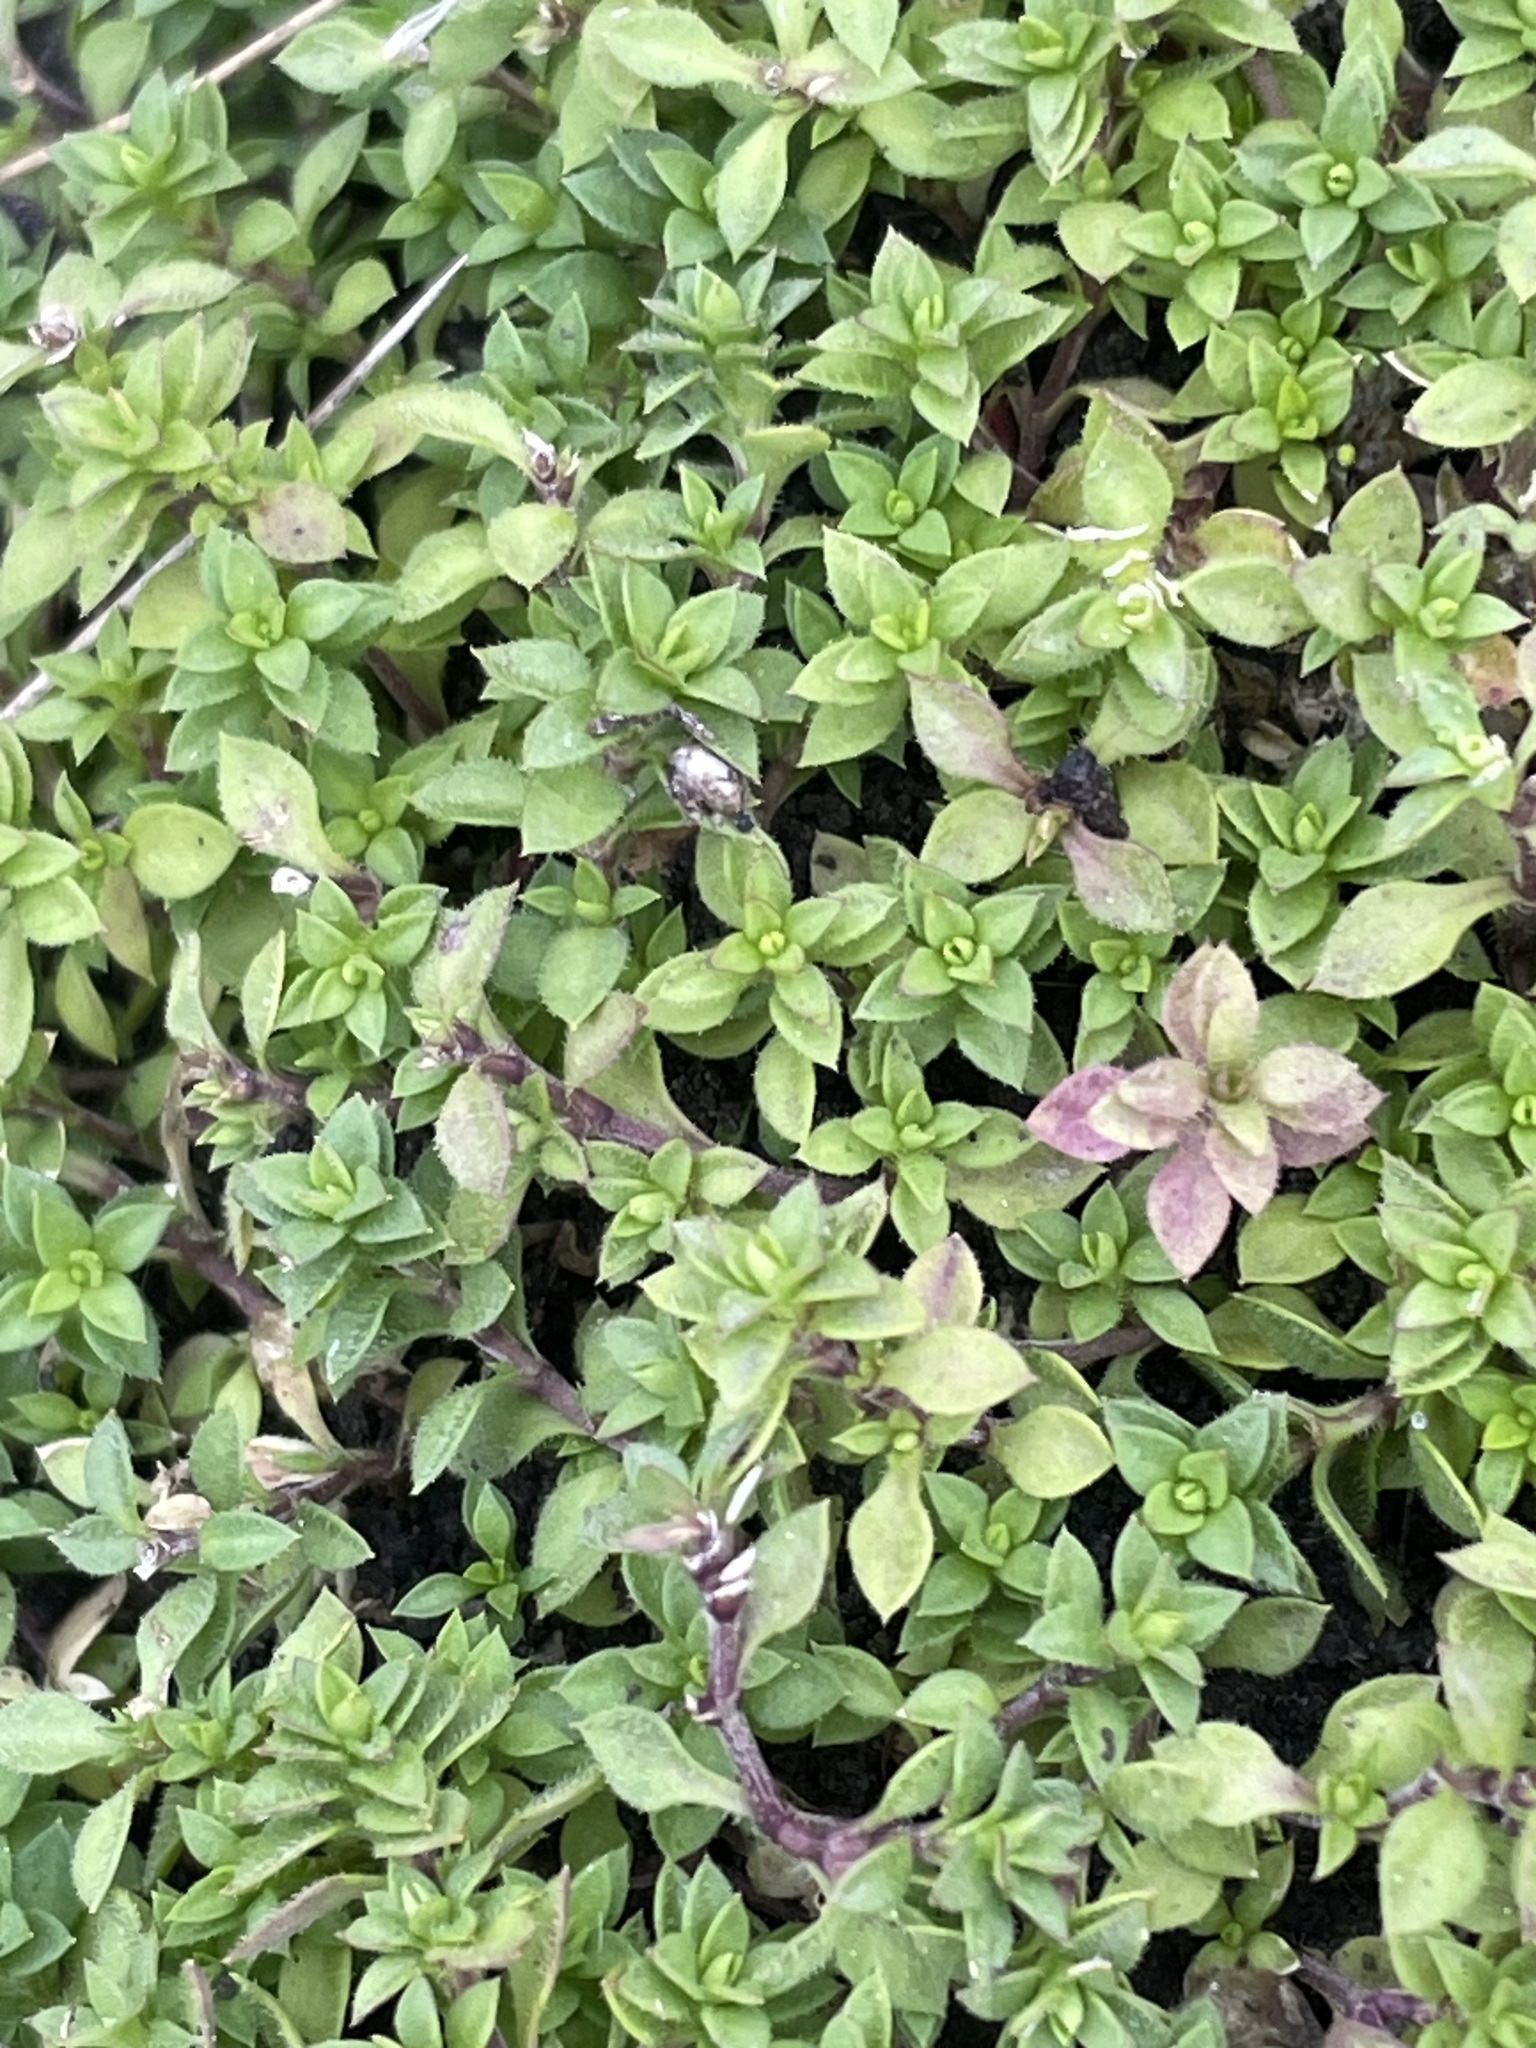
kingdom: Plantae
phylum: Tracheophyta
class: Magnoliopsida
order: Caryophyllales
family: Caryophyllaceae
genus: Arenaria
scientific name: Arenaria serpyllifolia
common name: Thyme-leaved sandwort
